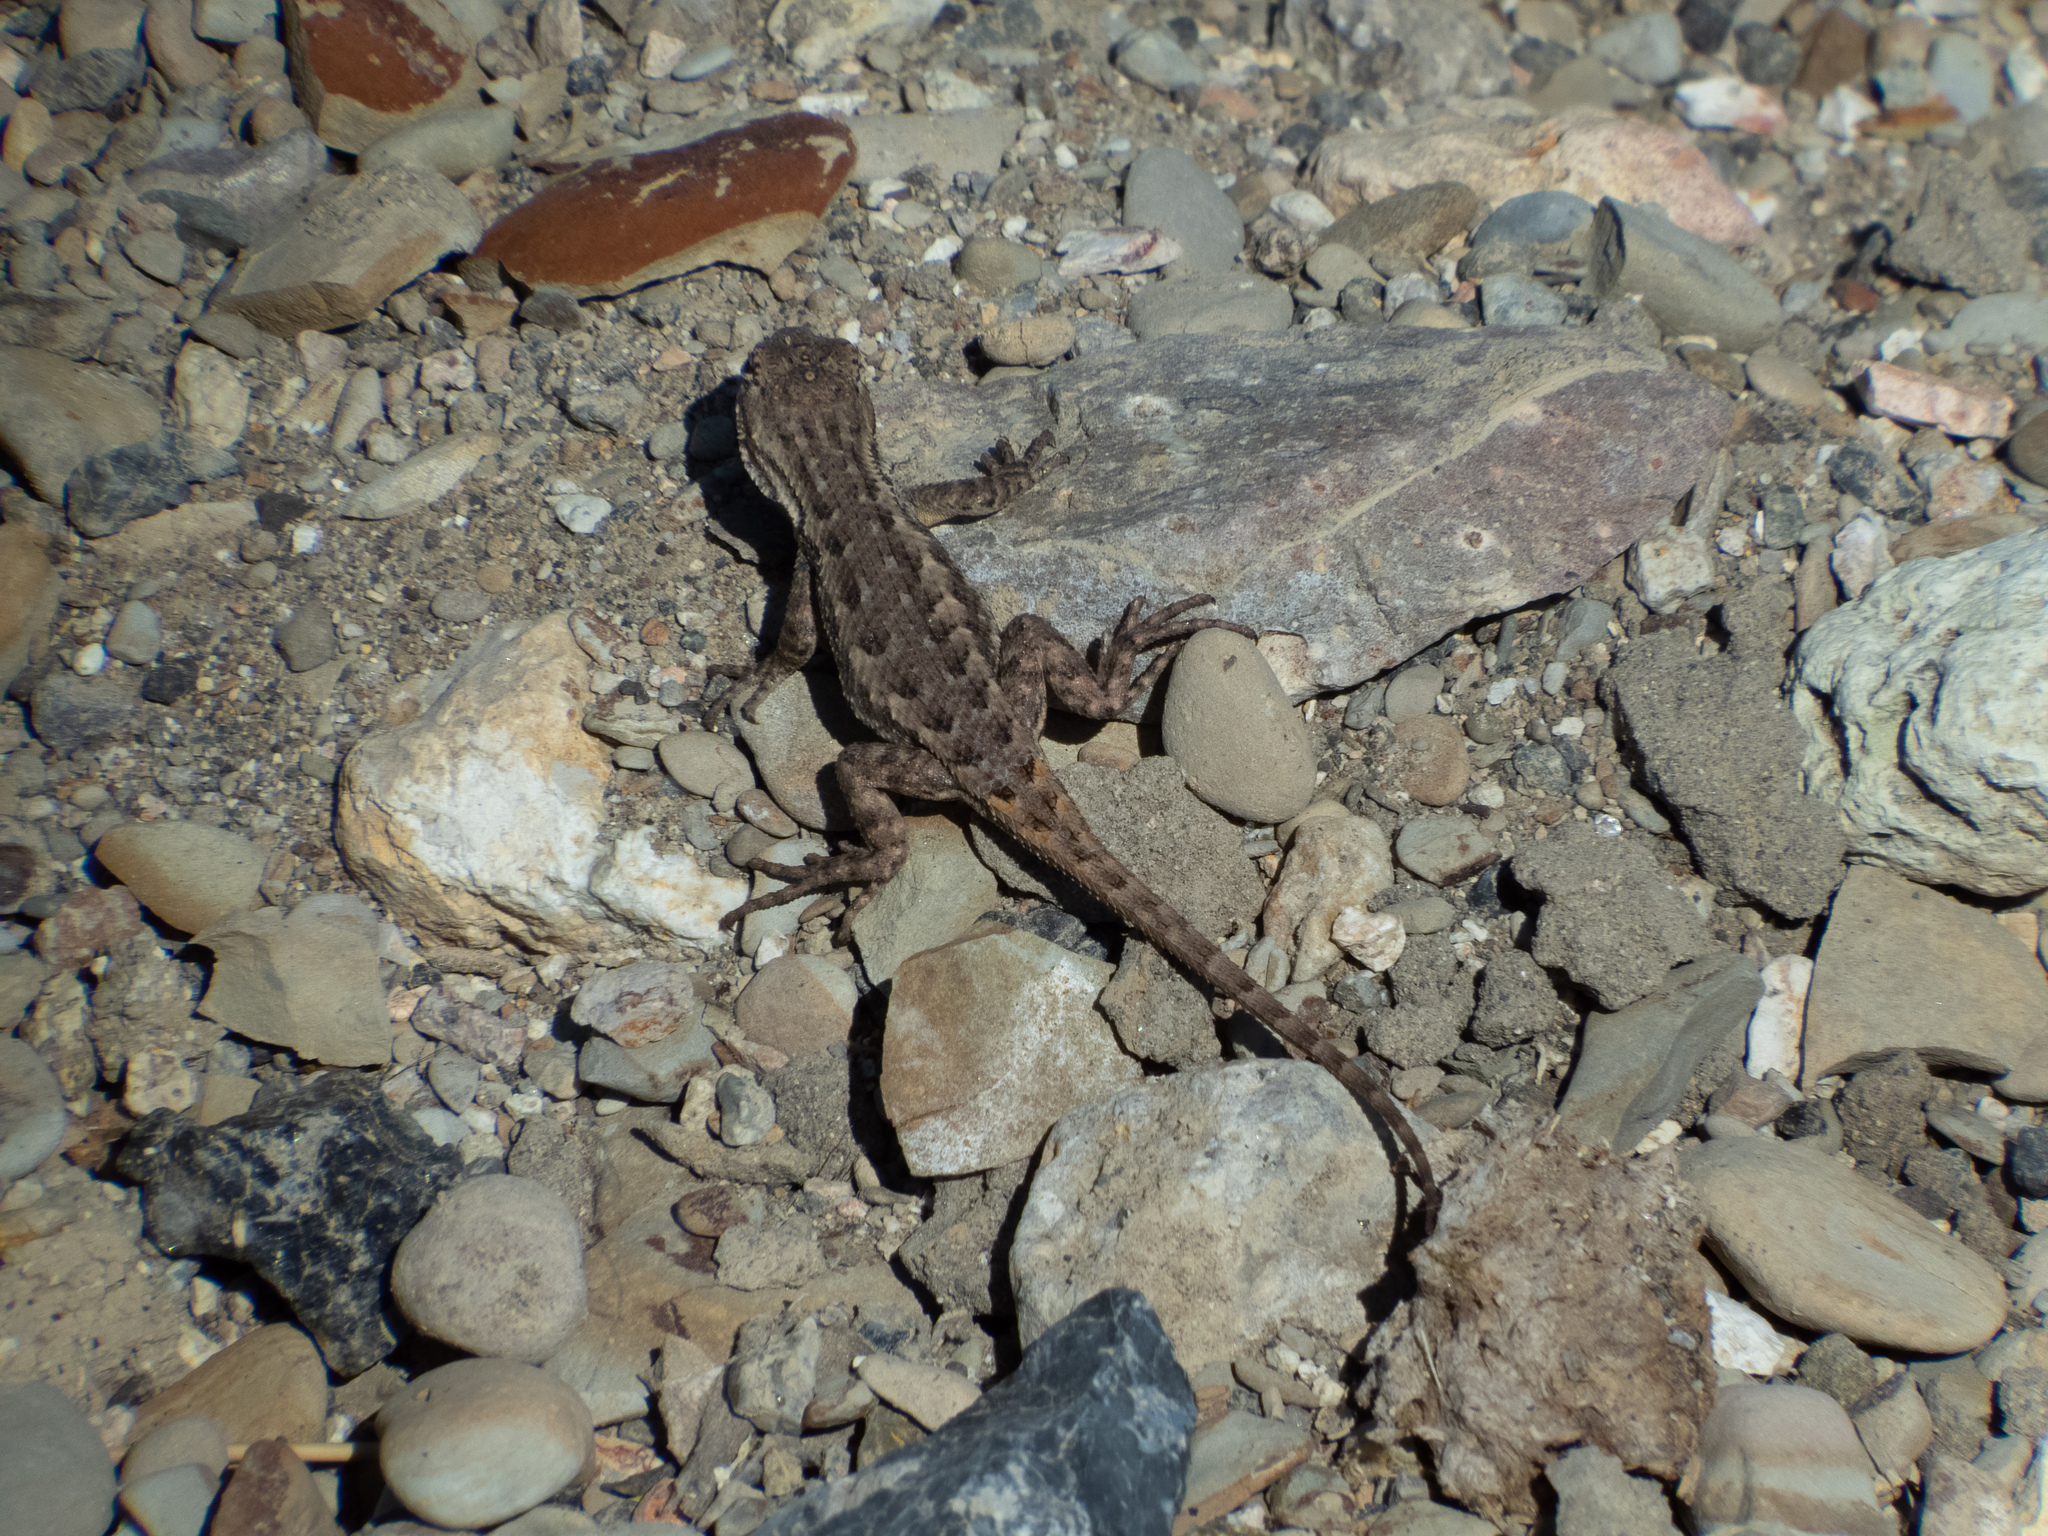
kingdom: Animalia
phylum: Chordata
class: Squamata
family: Phrynosomatidae
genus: Sceloporus
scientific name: Sceloporus occidentalis
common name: Western fence lizard
